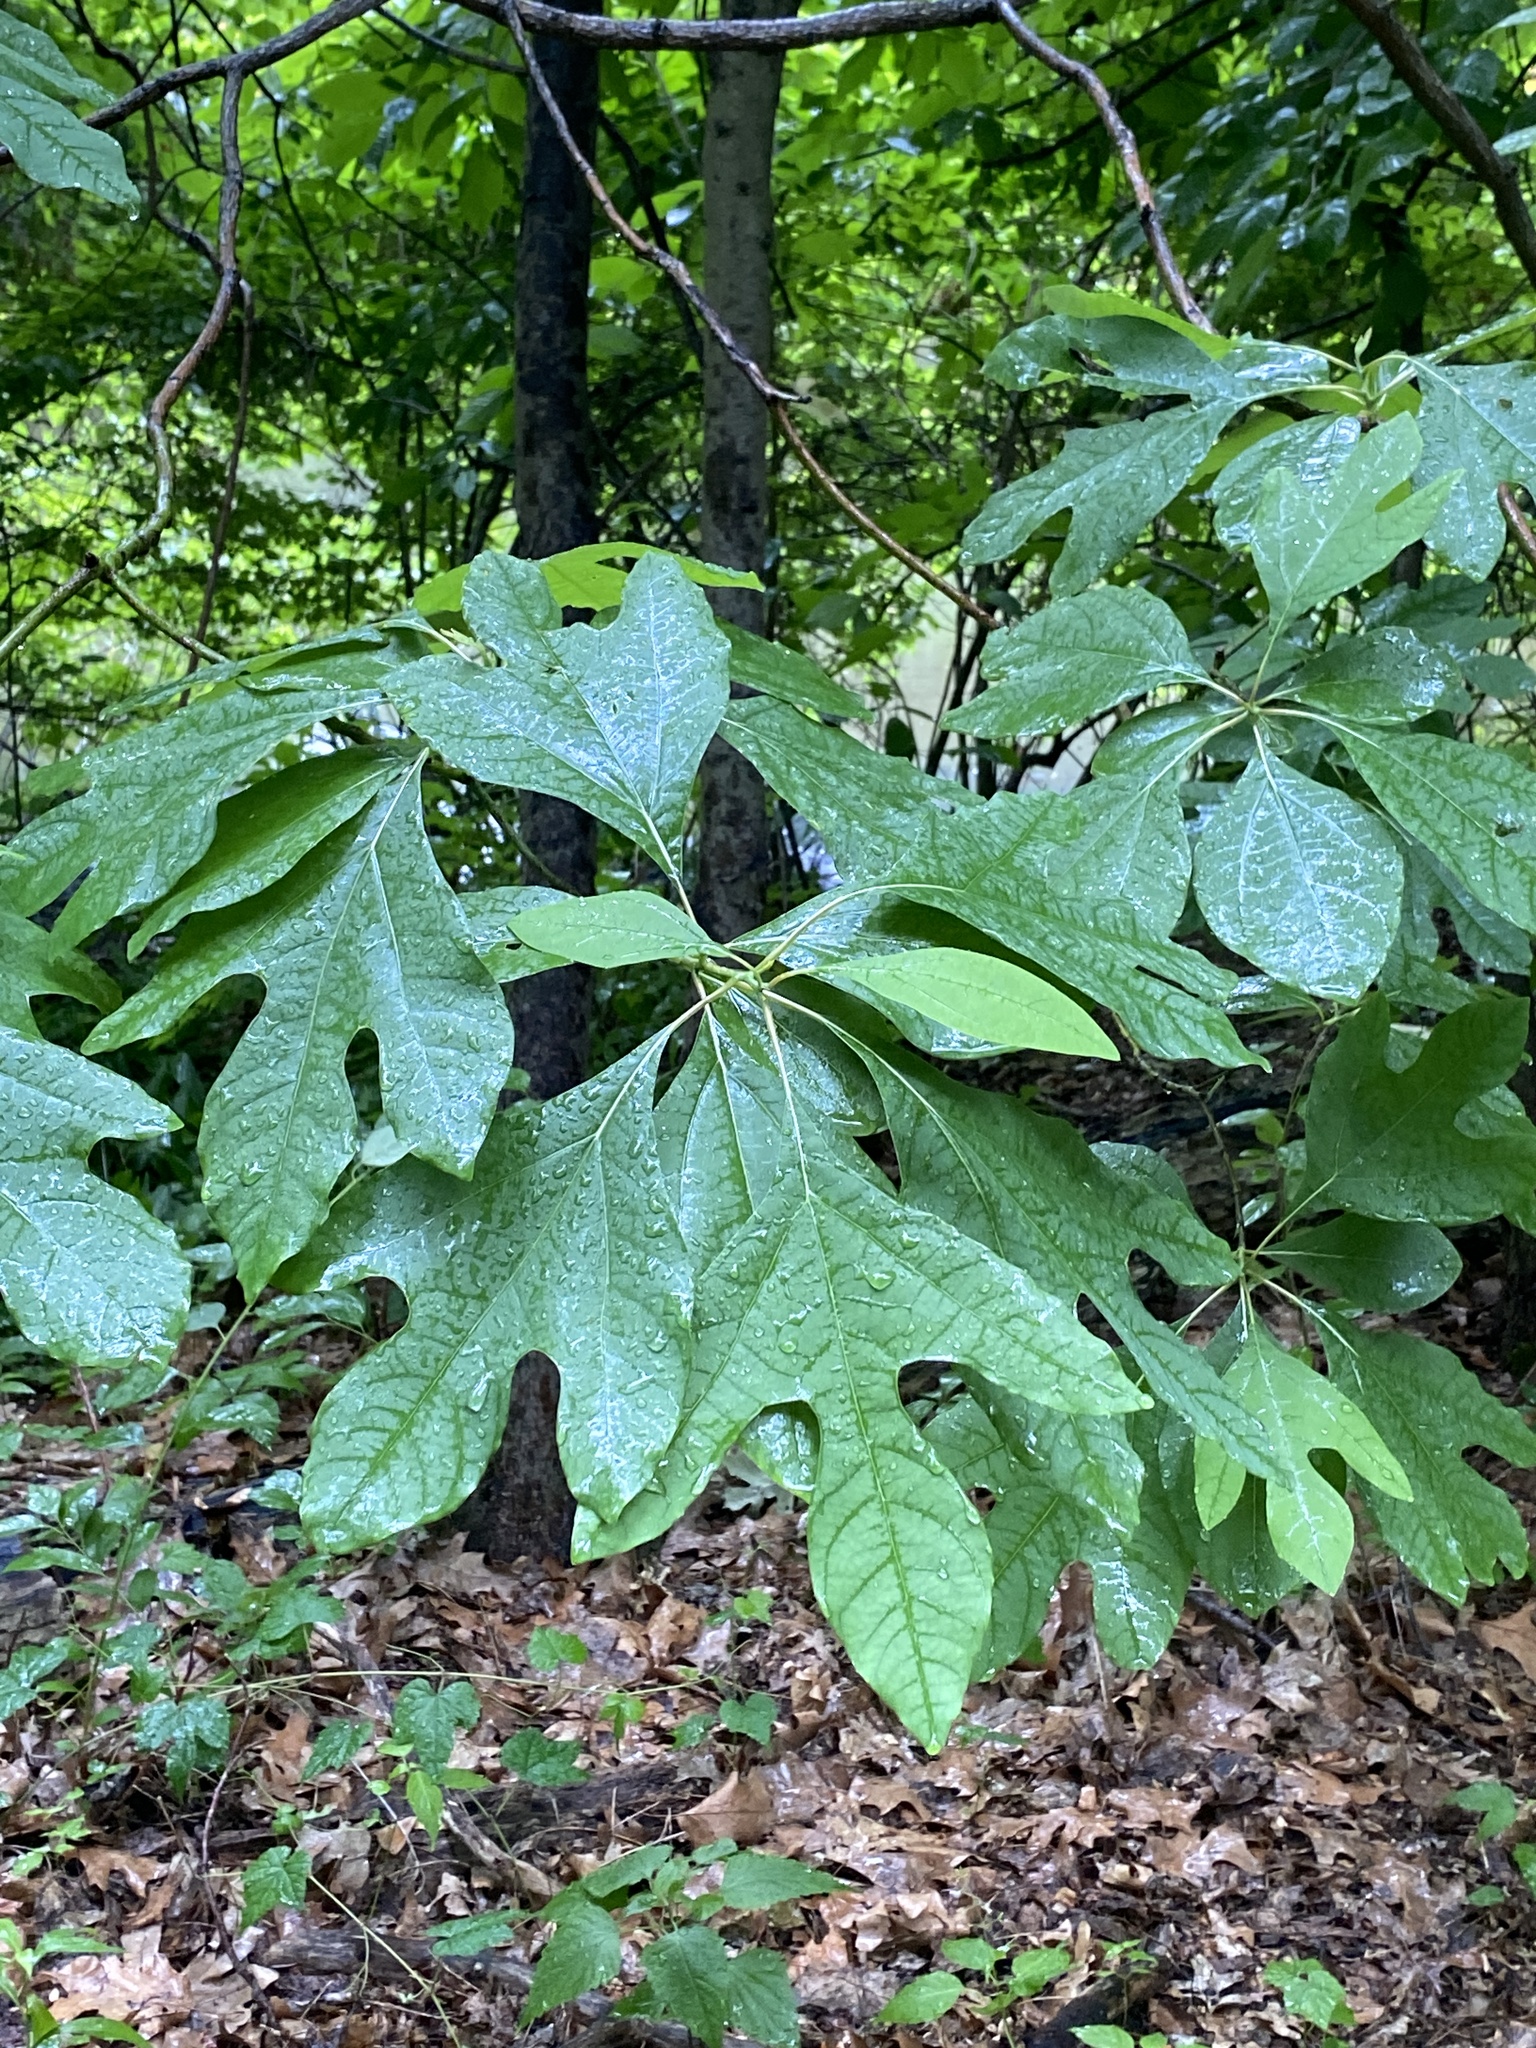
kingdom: Plantae
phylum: Tracheophyta
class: Magnoliopsida
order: Laurales
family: Lauraceae
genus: Sassafras
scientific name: Sassafras albidum
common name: Sassafras
